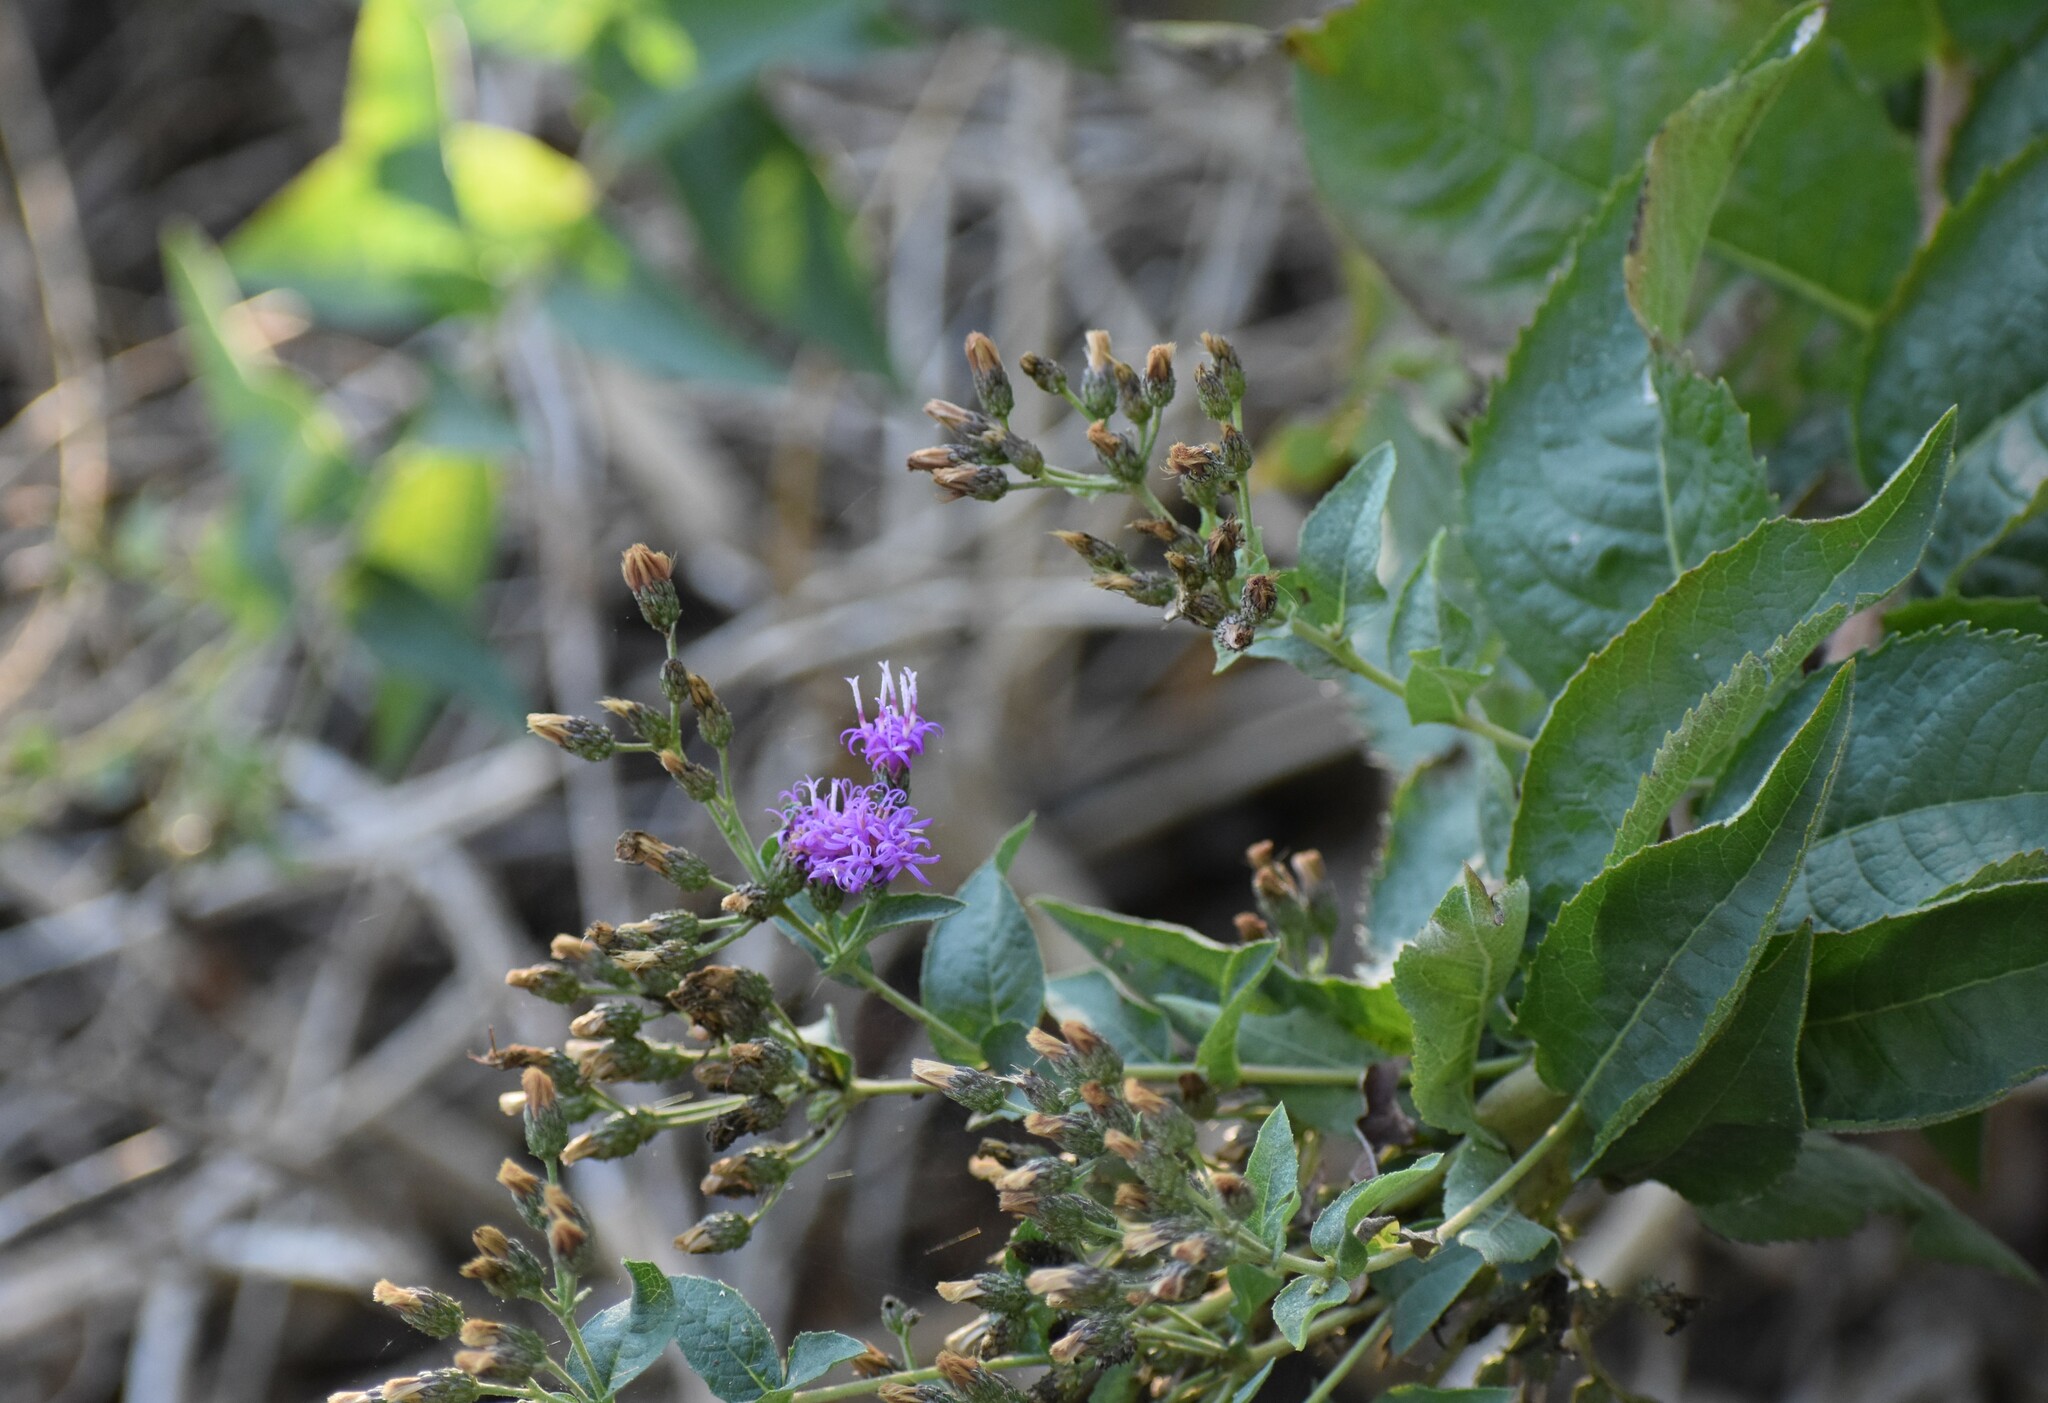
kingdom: Plantae
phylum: Tracheophyta
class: Magnoliopsida
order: Asterales
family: Asteraceae
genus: Vernonia
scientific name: Vernonia baldwinii
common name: Western ironweed
